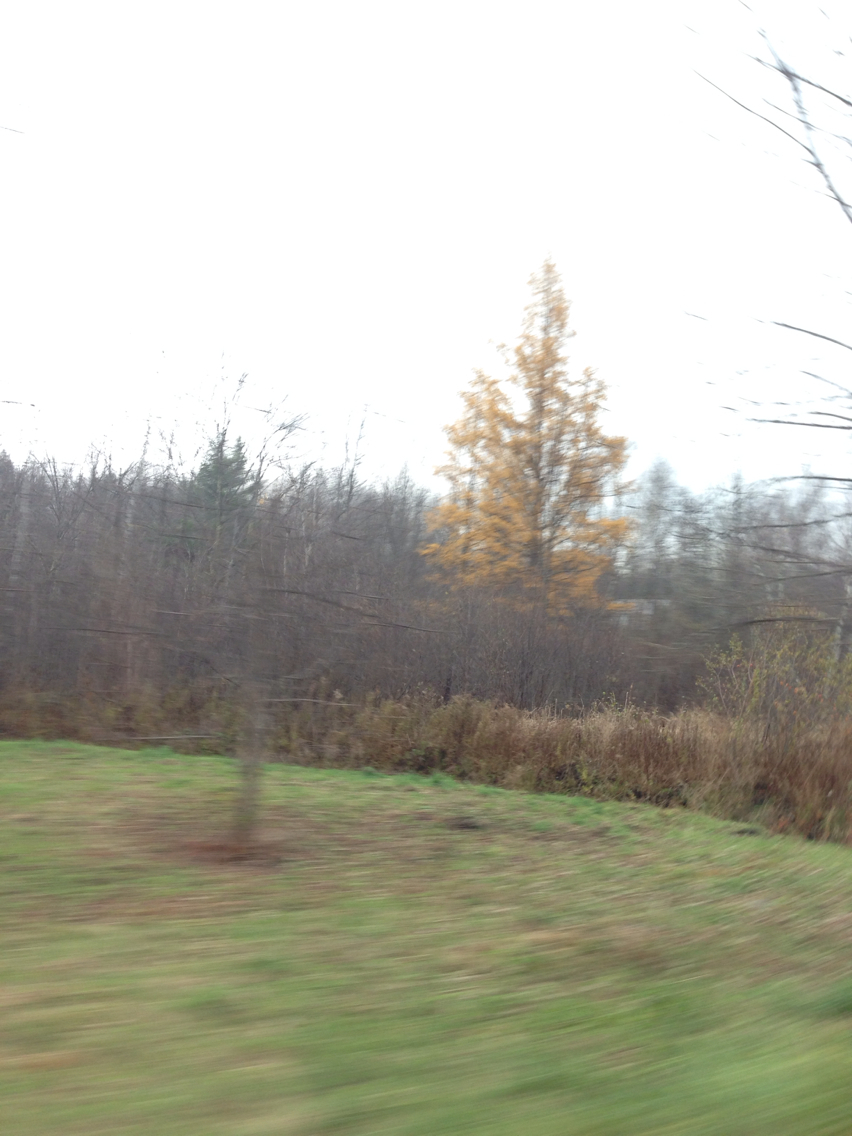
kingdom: Plantae
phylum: Tracheophyta
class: Pinopsida
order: Pinales
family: Pinaceae
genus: Larix
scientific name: Larix laricina
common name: American larch
